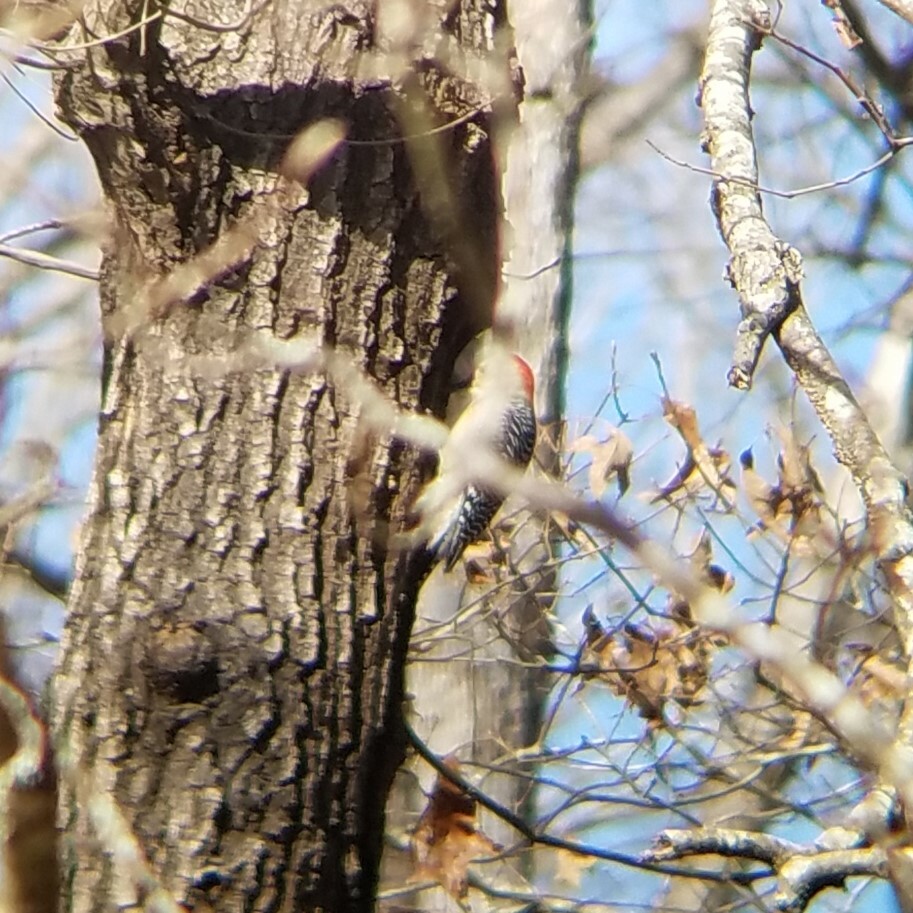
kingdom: Animalia
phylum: Chordata
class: Aves
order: Piciformes
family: Picidae
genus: Melanerpes
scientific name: Melanerpes carolinus
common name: Red-bellied woodpecker
